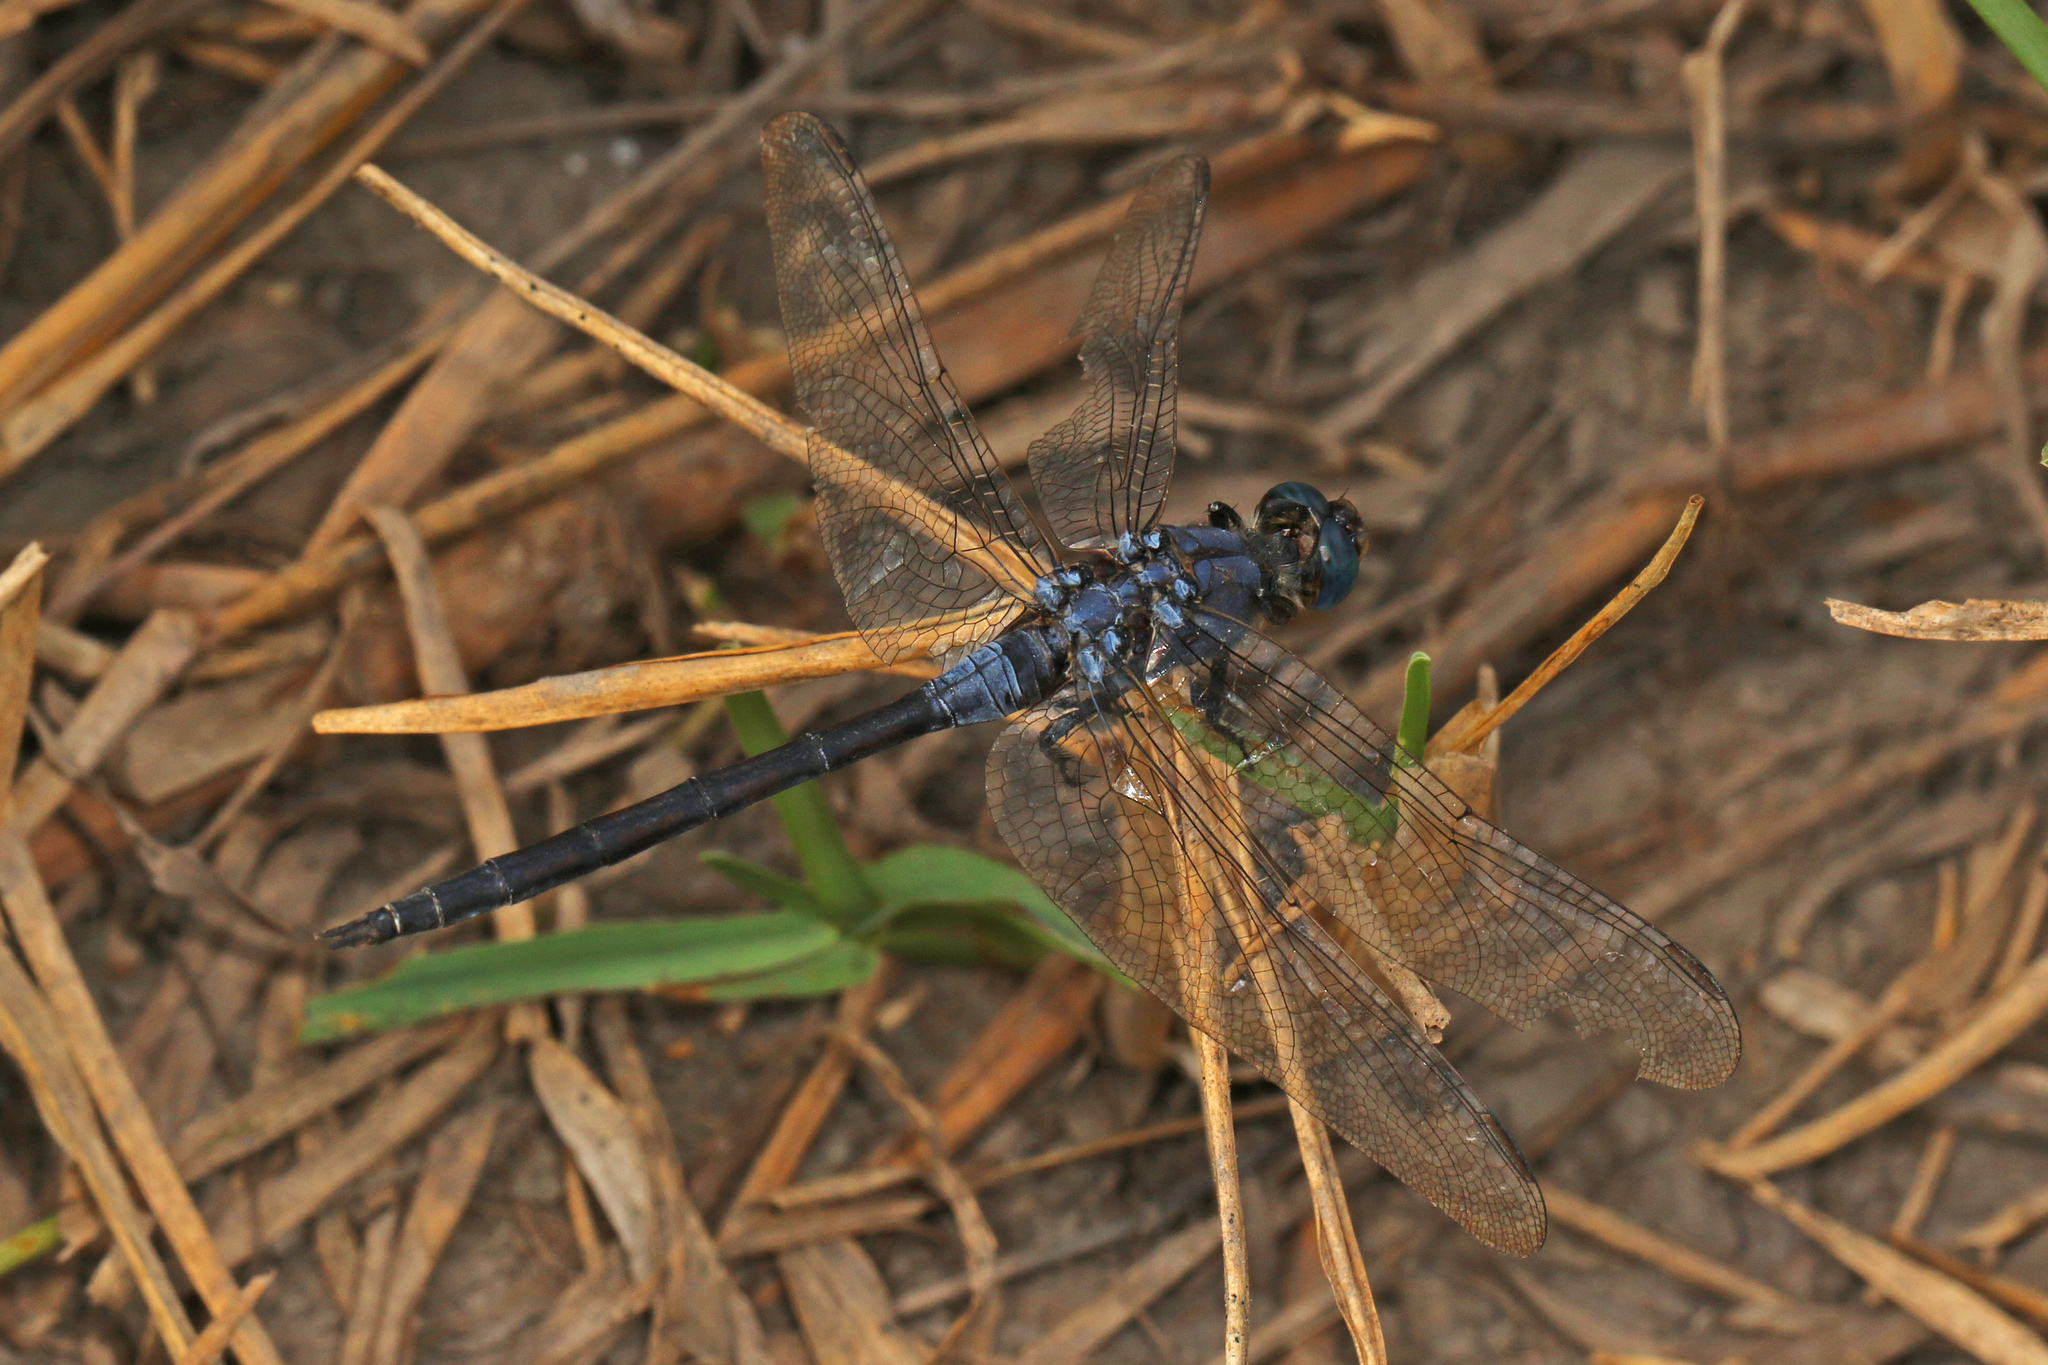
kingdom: Animalia
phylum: Arthropoda
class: Insecta
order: Odonata
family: Libellulidae
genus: Orthetrum
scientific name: Orthetrum trinacria
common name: Long skimmer
